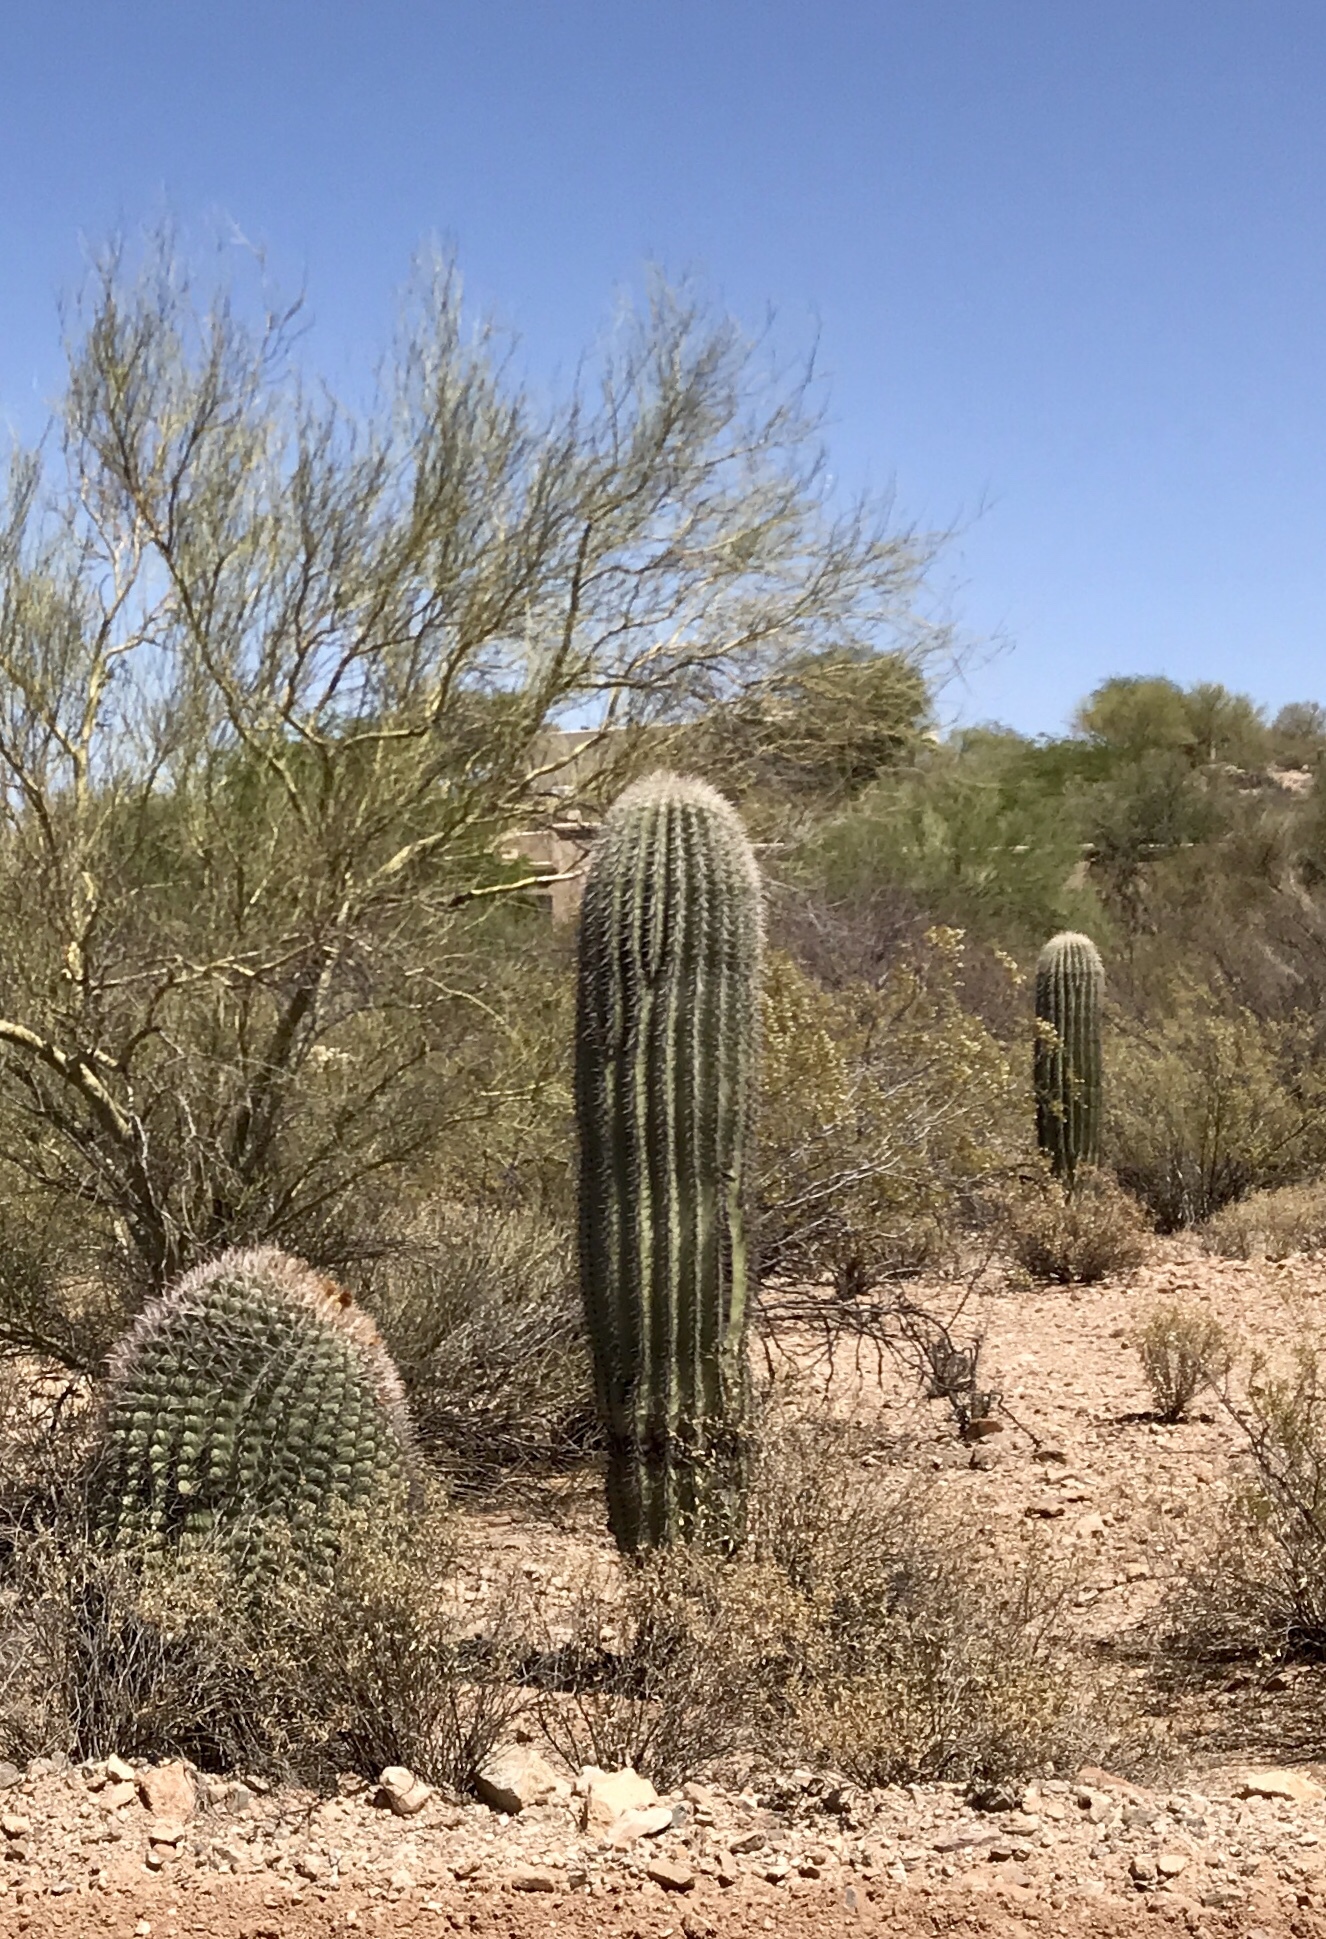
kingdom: Plantae
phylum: Tracheophyta
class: Magnoliopsida
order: Caryophyllales
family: Cactaceae
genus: Carnegiea
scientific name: Carnegiea gigantea
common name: Saguaro
